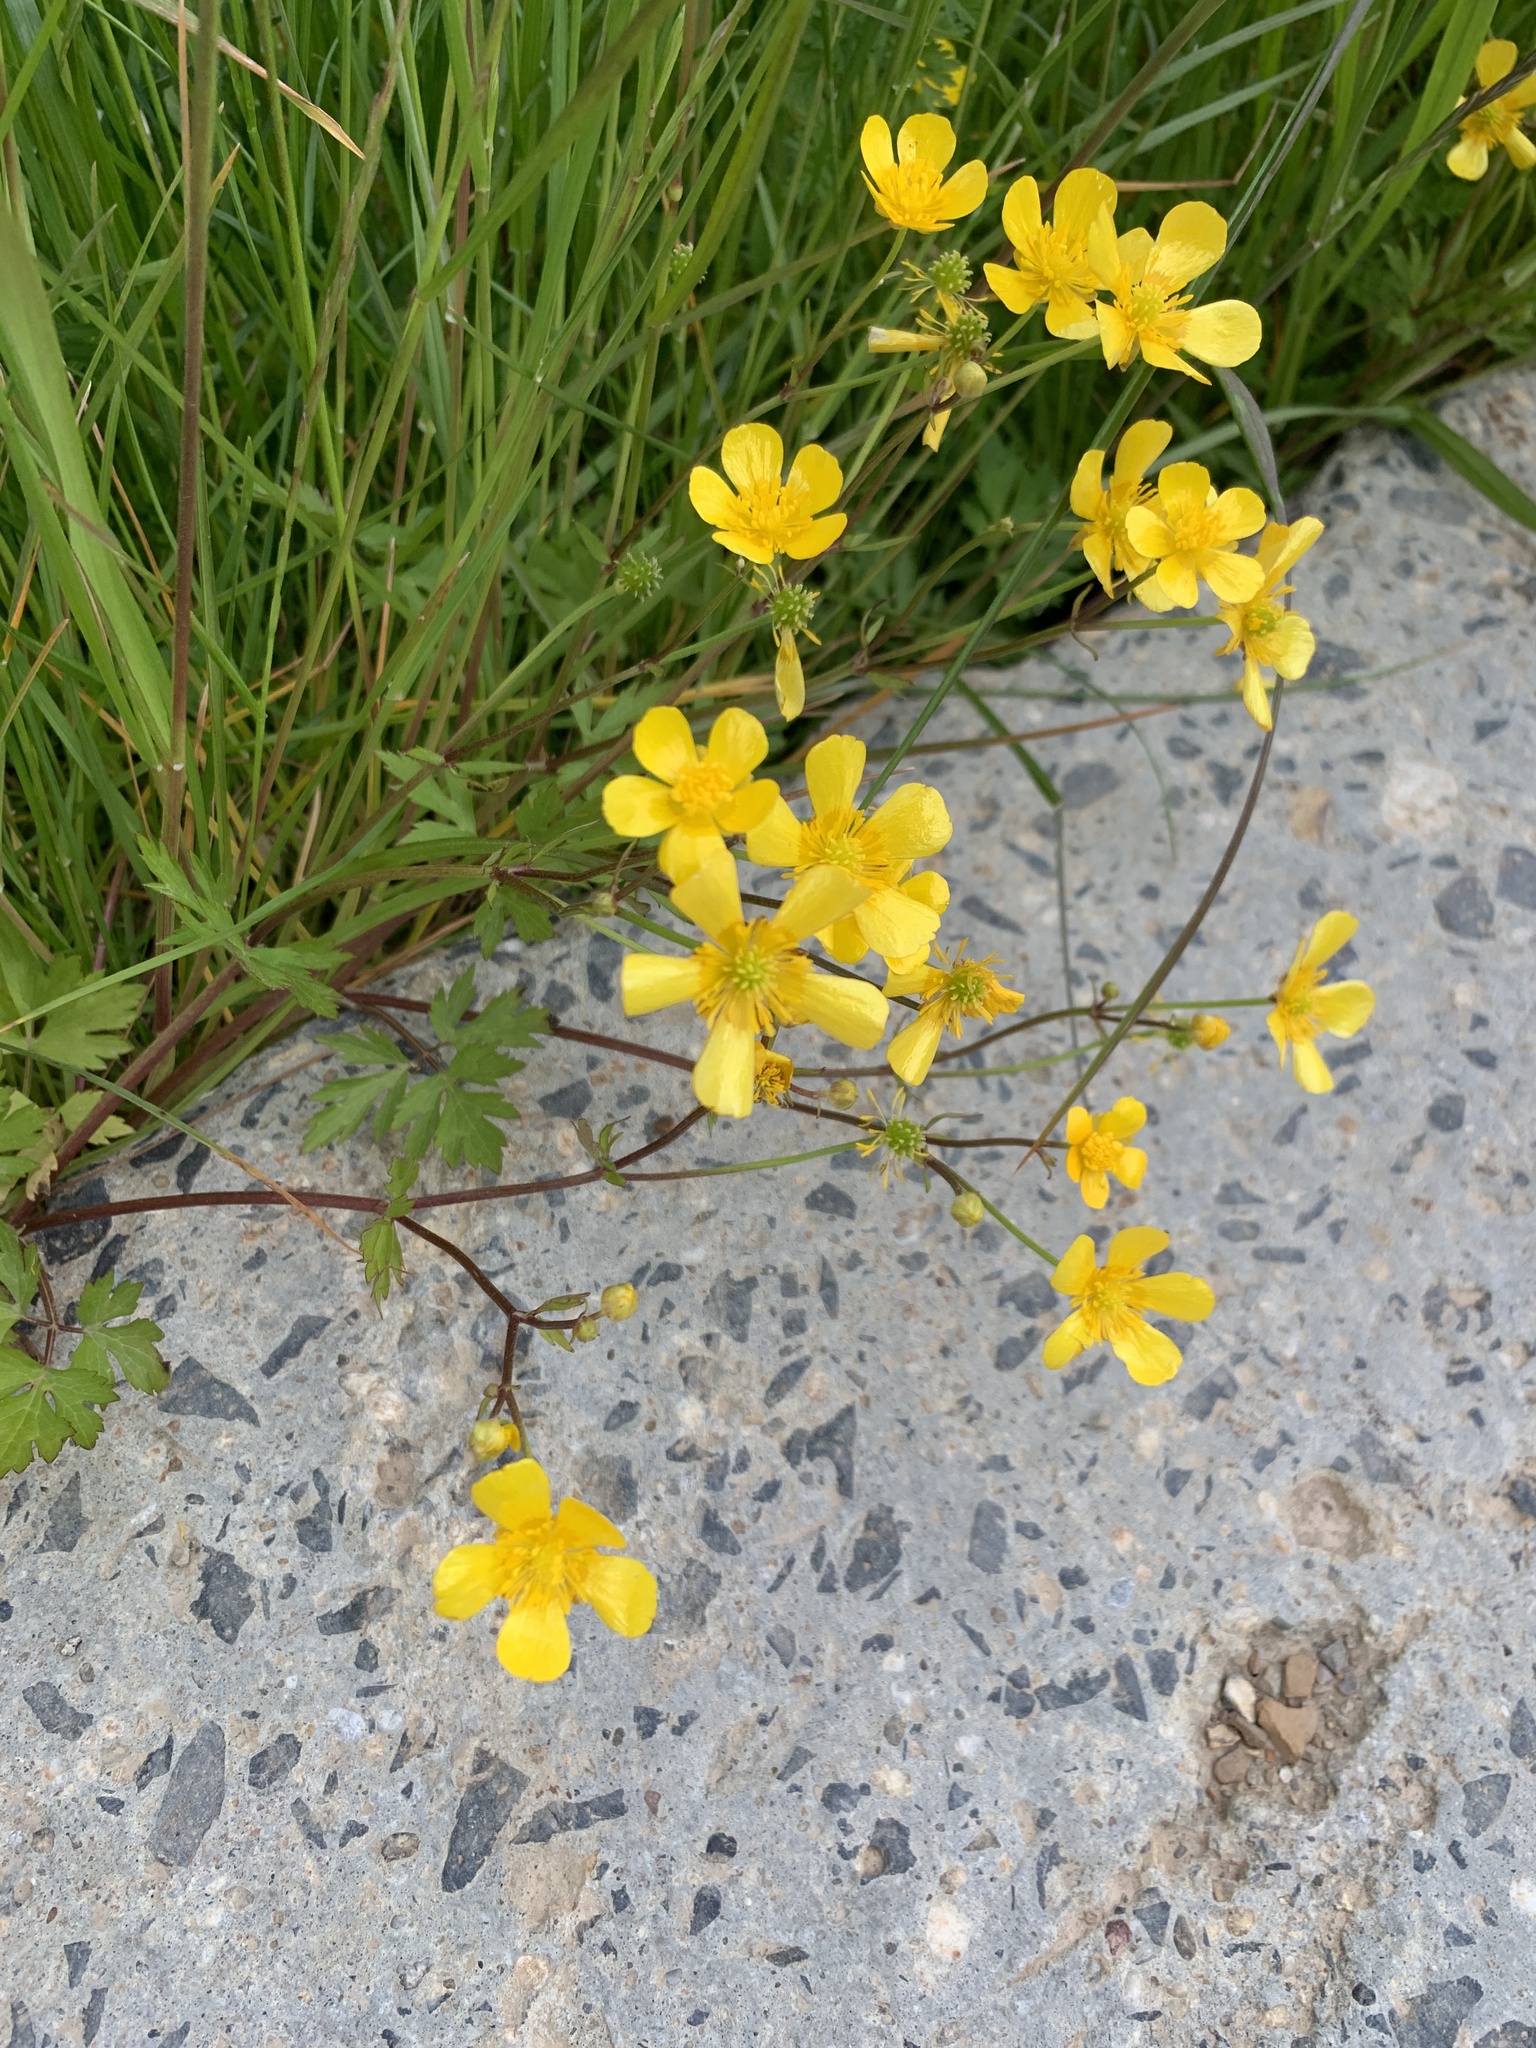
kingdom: Plantae
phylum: Tracheophyta
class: Magnoliopsida
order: Ranunculales
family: Ranunculaceae
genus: Ranunculus
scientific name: Ranunculus repens
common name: Creeping buttercup
